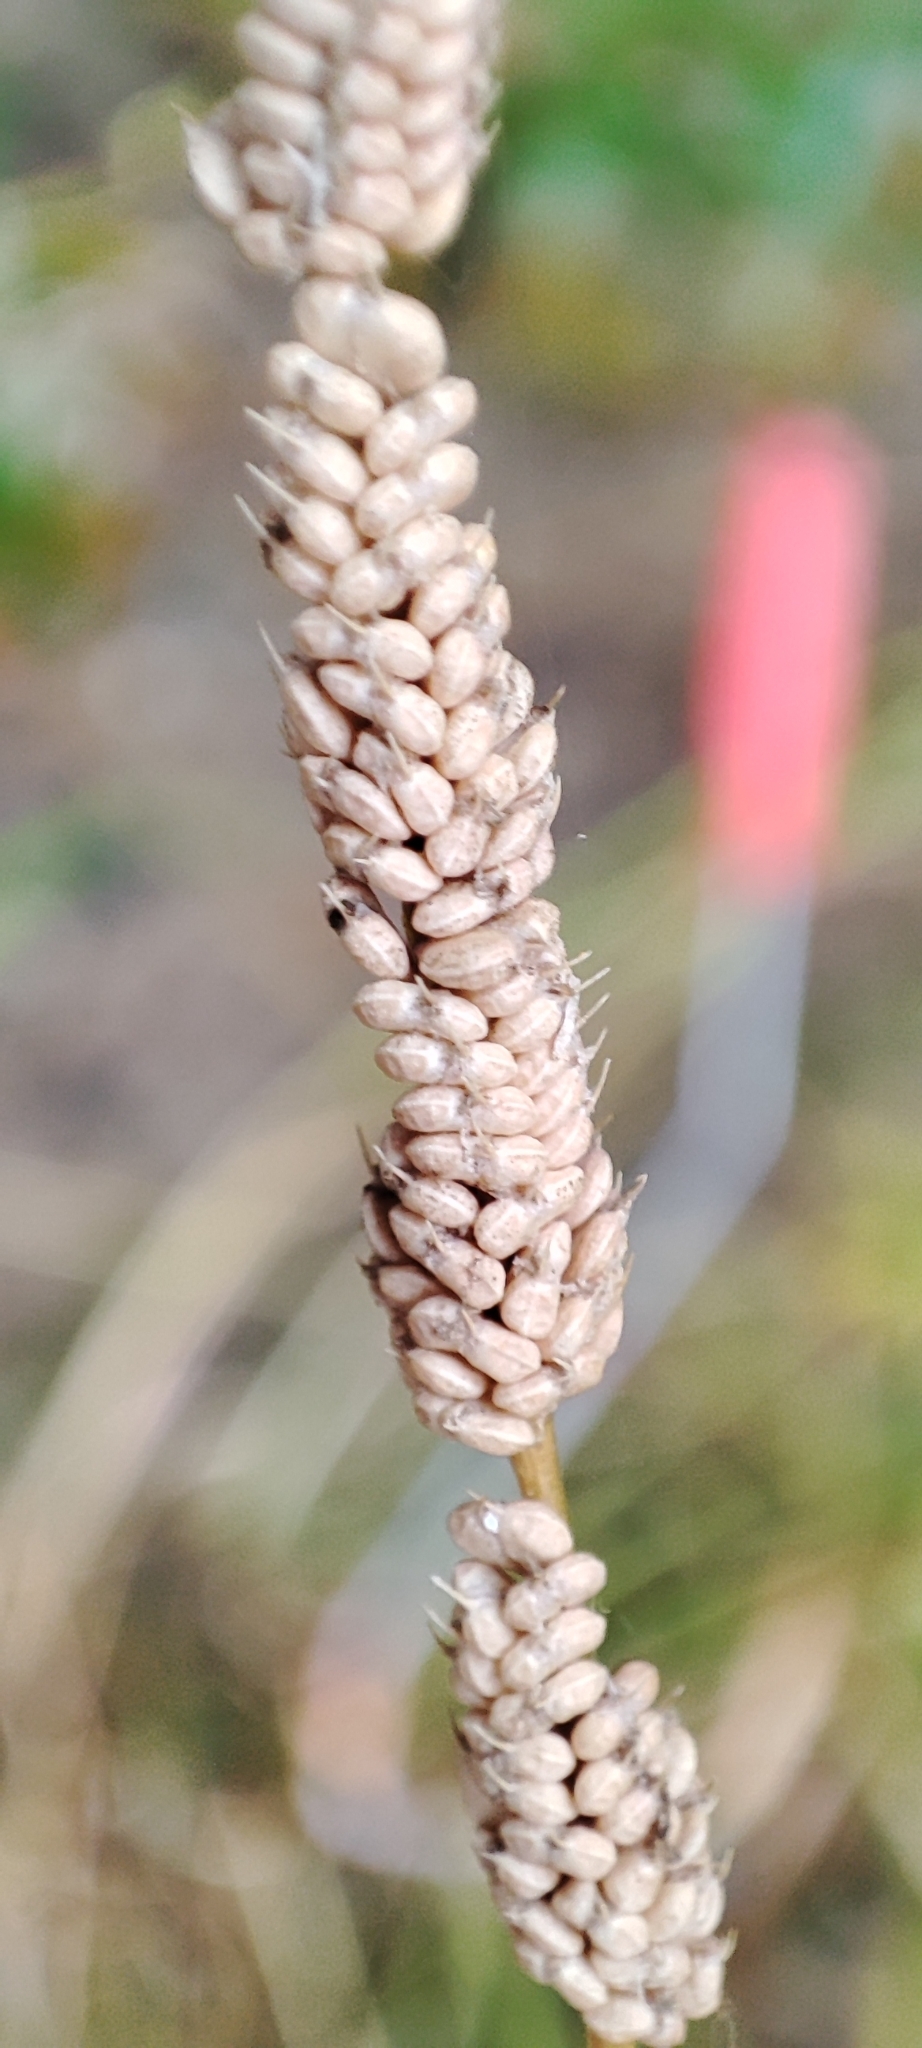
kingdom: Plantae
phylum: Tracheophyta
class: Liliopsida
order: Poales
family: Poaceae
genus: Beckmannia
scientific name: Beckmannia syzigachne
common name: American slough-grass
